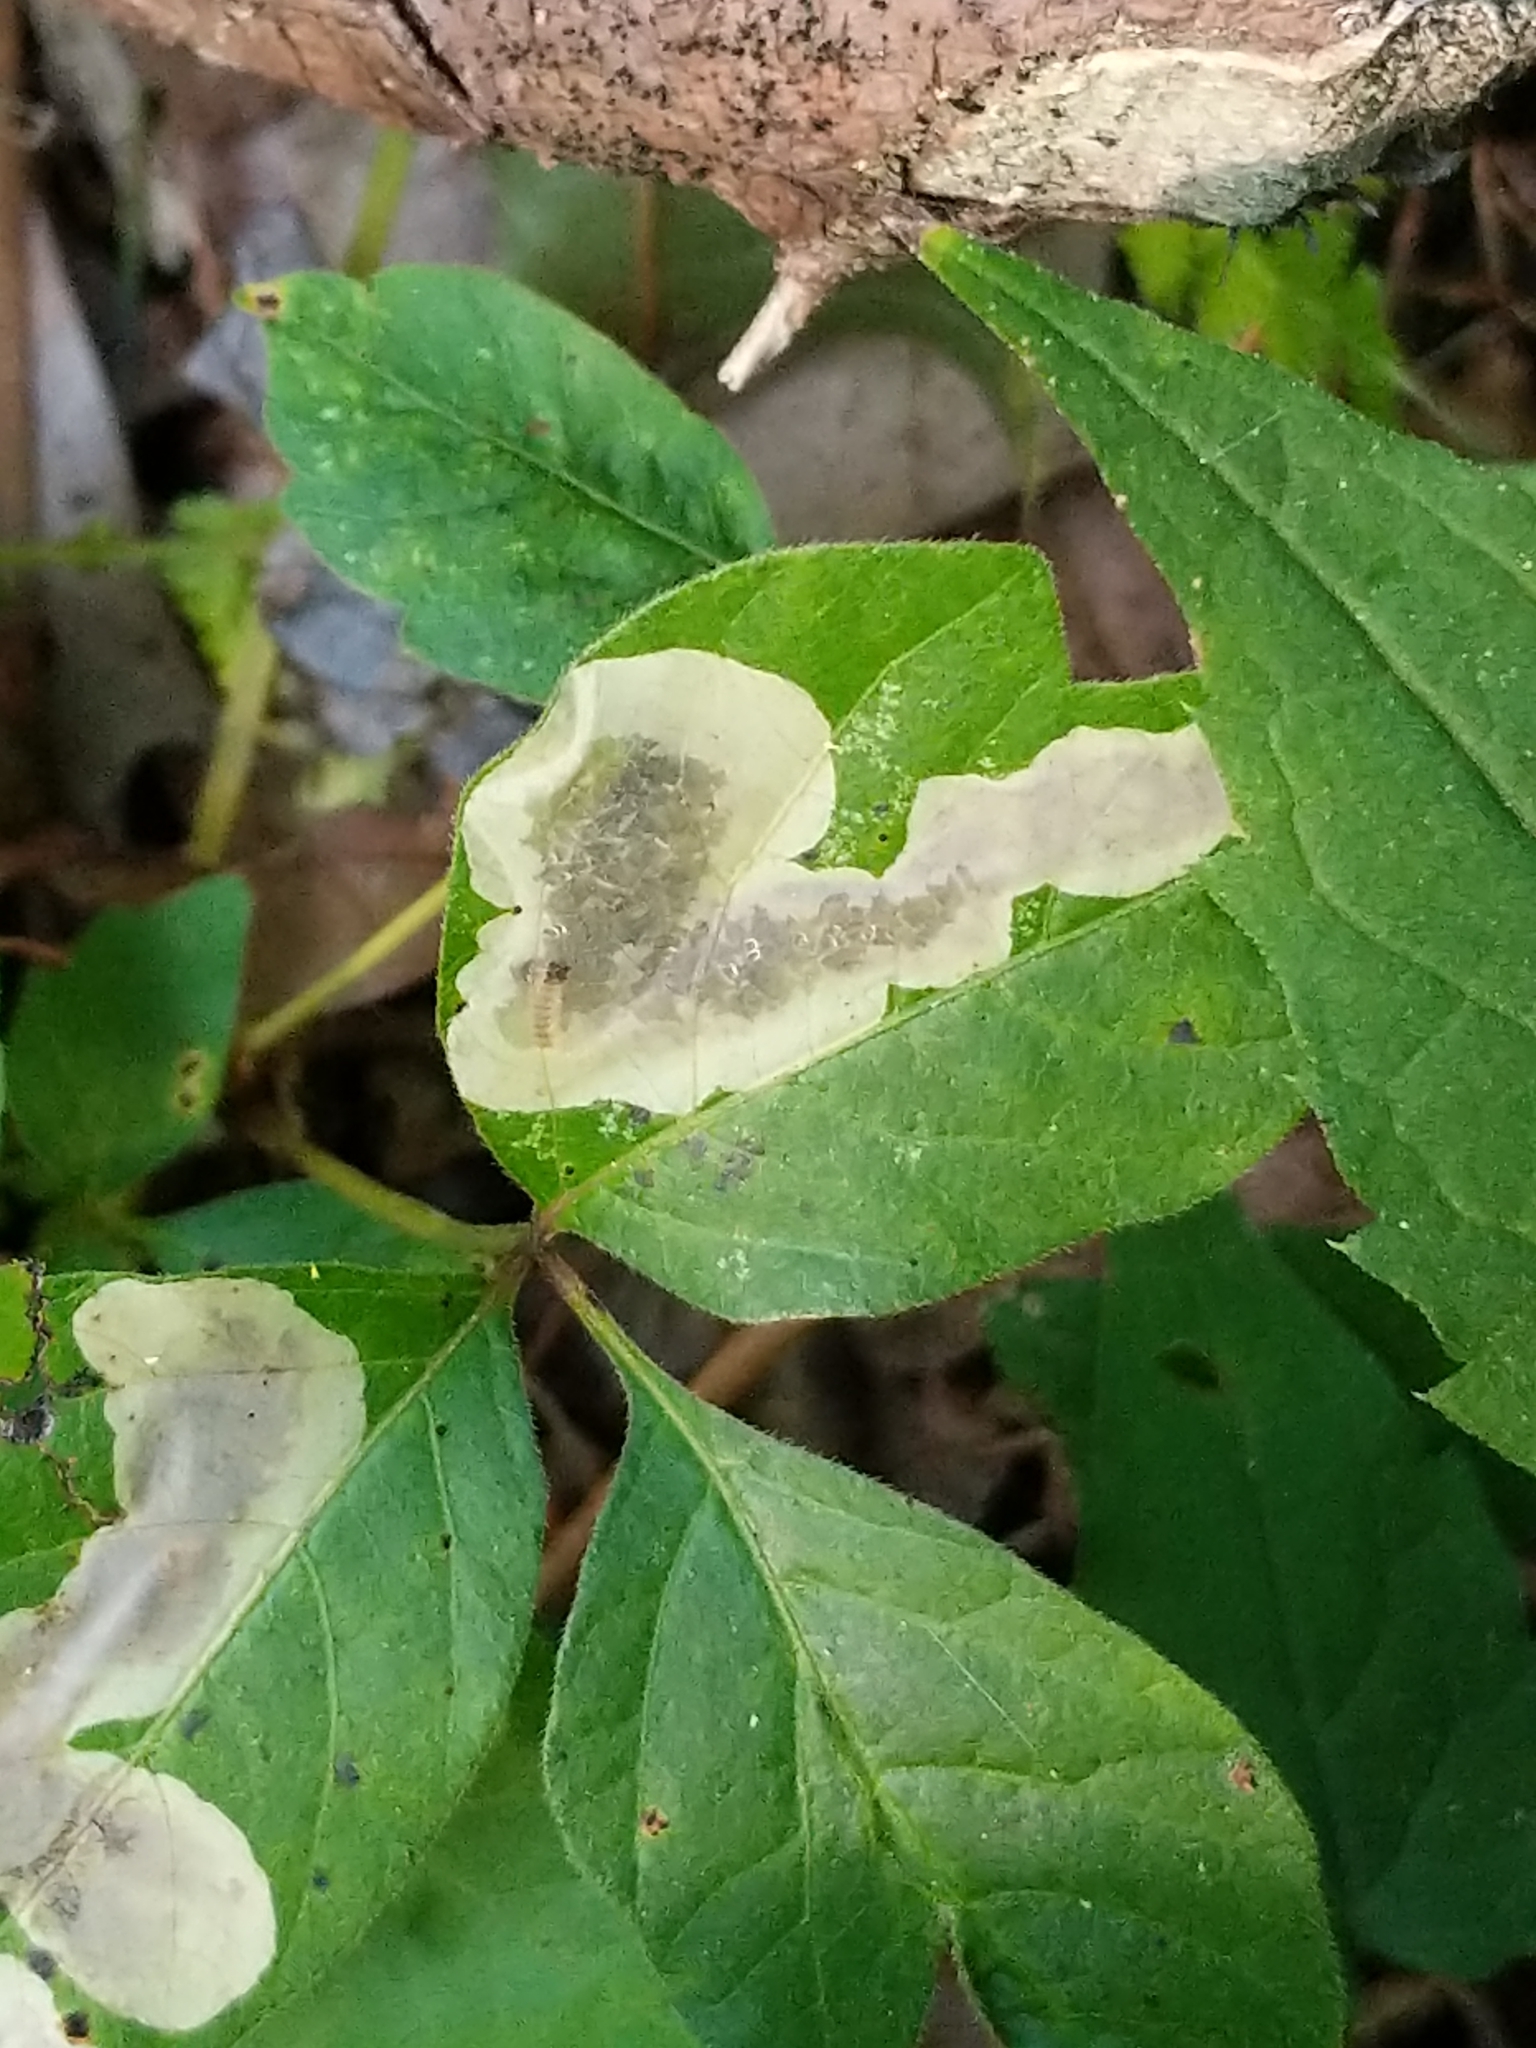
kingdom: Animalia
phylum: Arthropoda
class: Insecta
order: Lepidoptera
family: Gracillariidae
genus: Cameraria
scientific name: Cameraria guttifinitella
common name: Poison ivy leaf-miner moth
